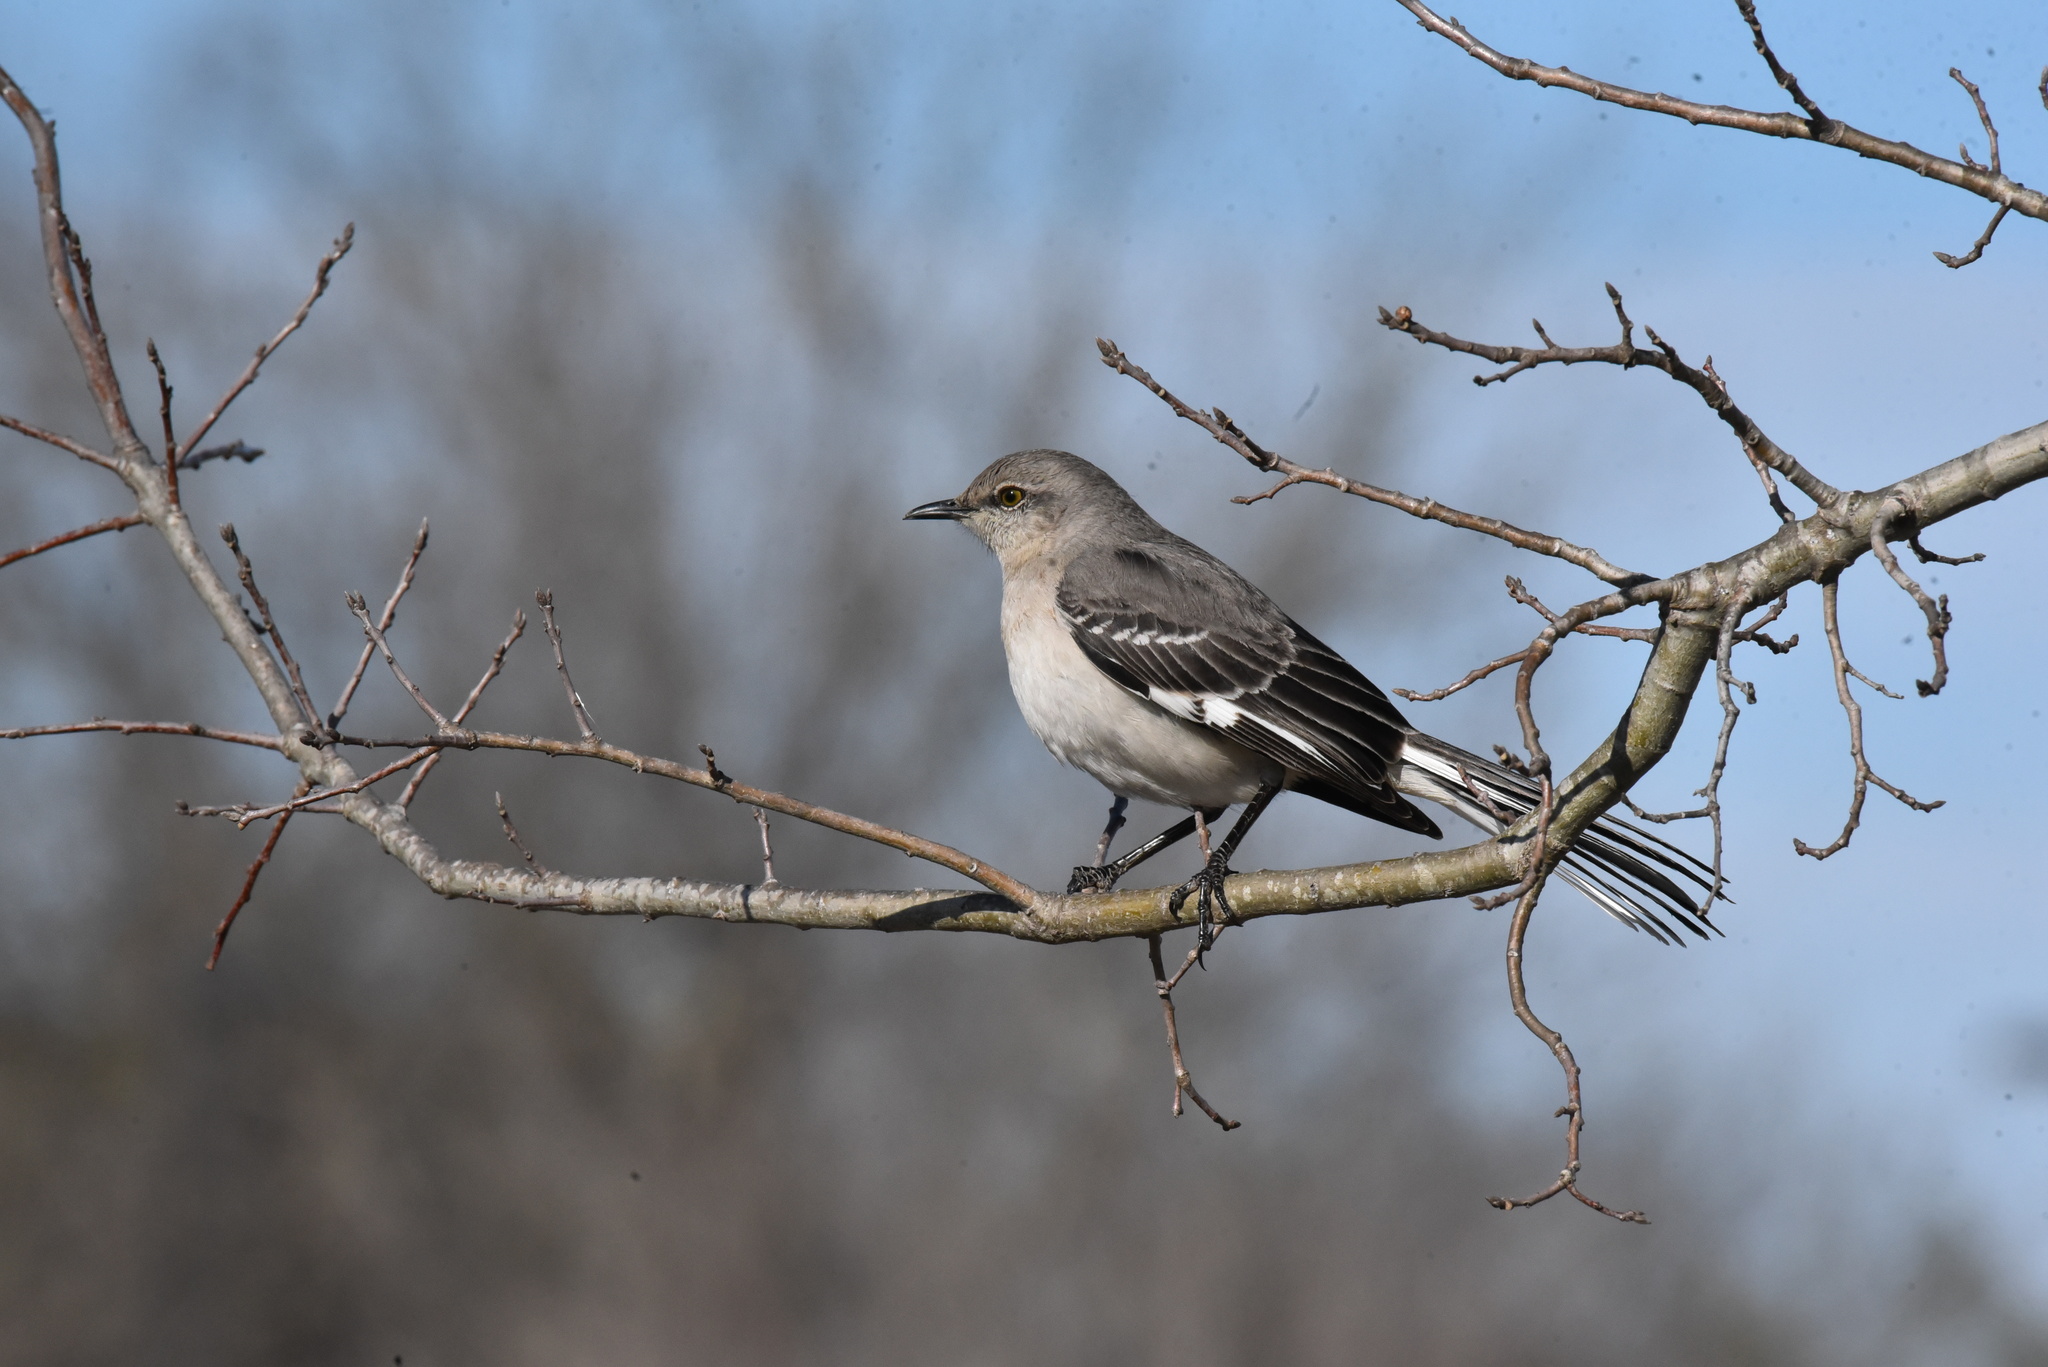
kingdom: Animalia
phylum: Chordata
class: Aves
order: Passeriformes
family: Mimidae
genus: Mimus
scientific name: Mimus polyglottos
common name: Northern mockingbird
